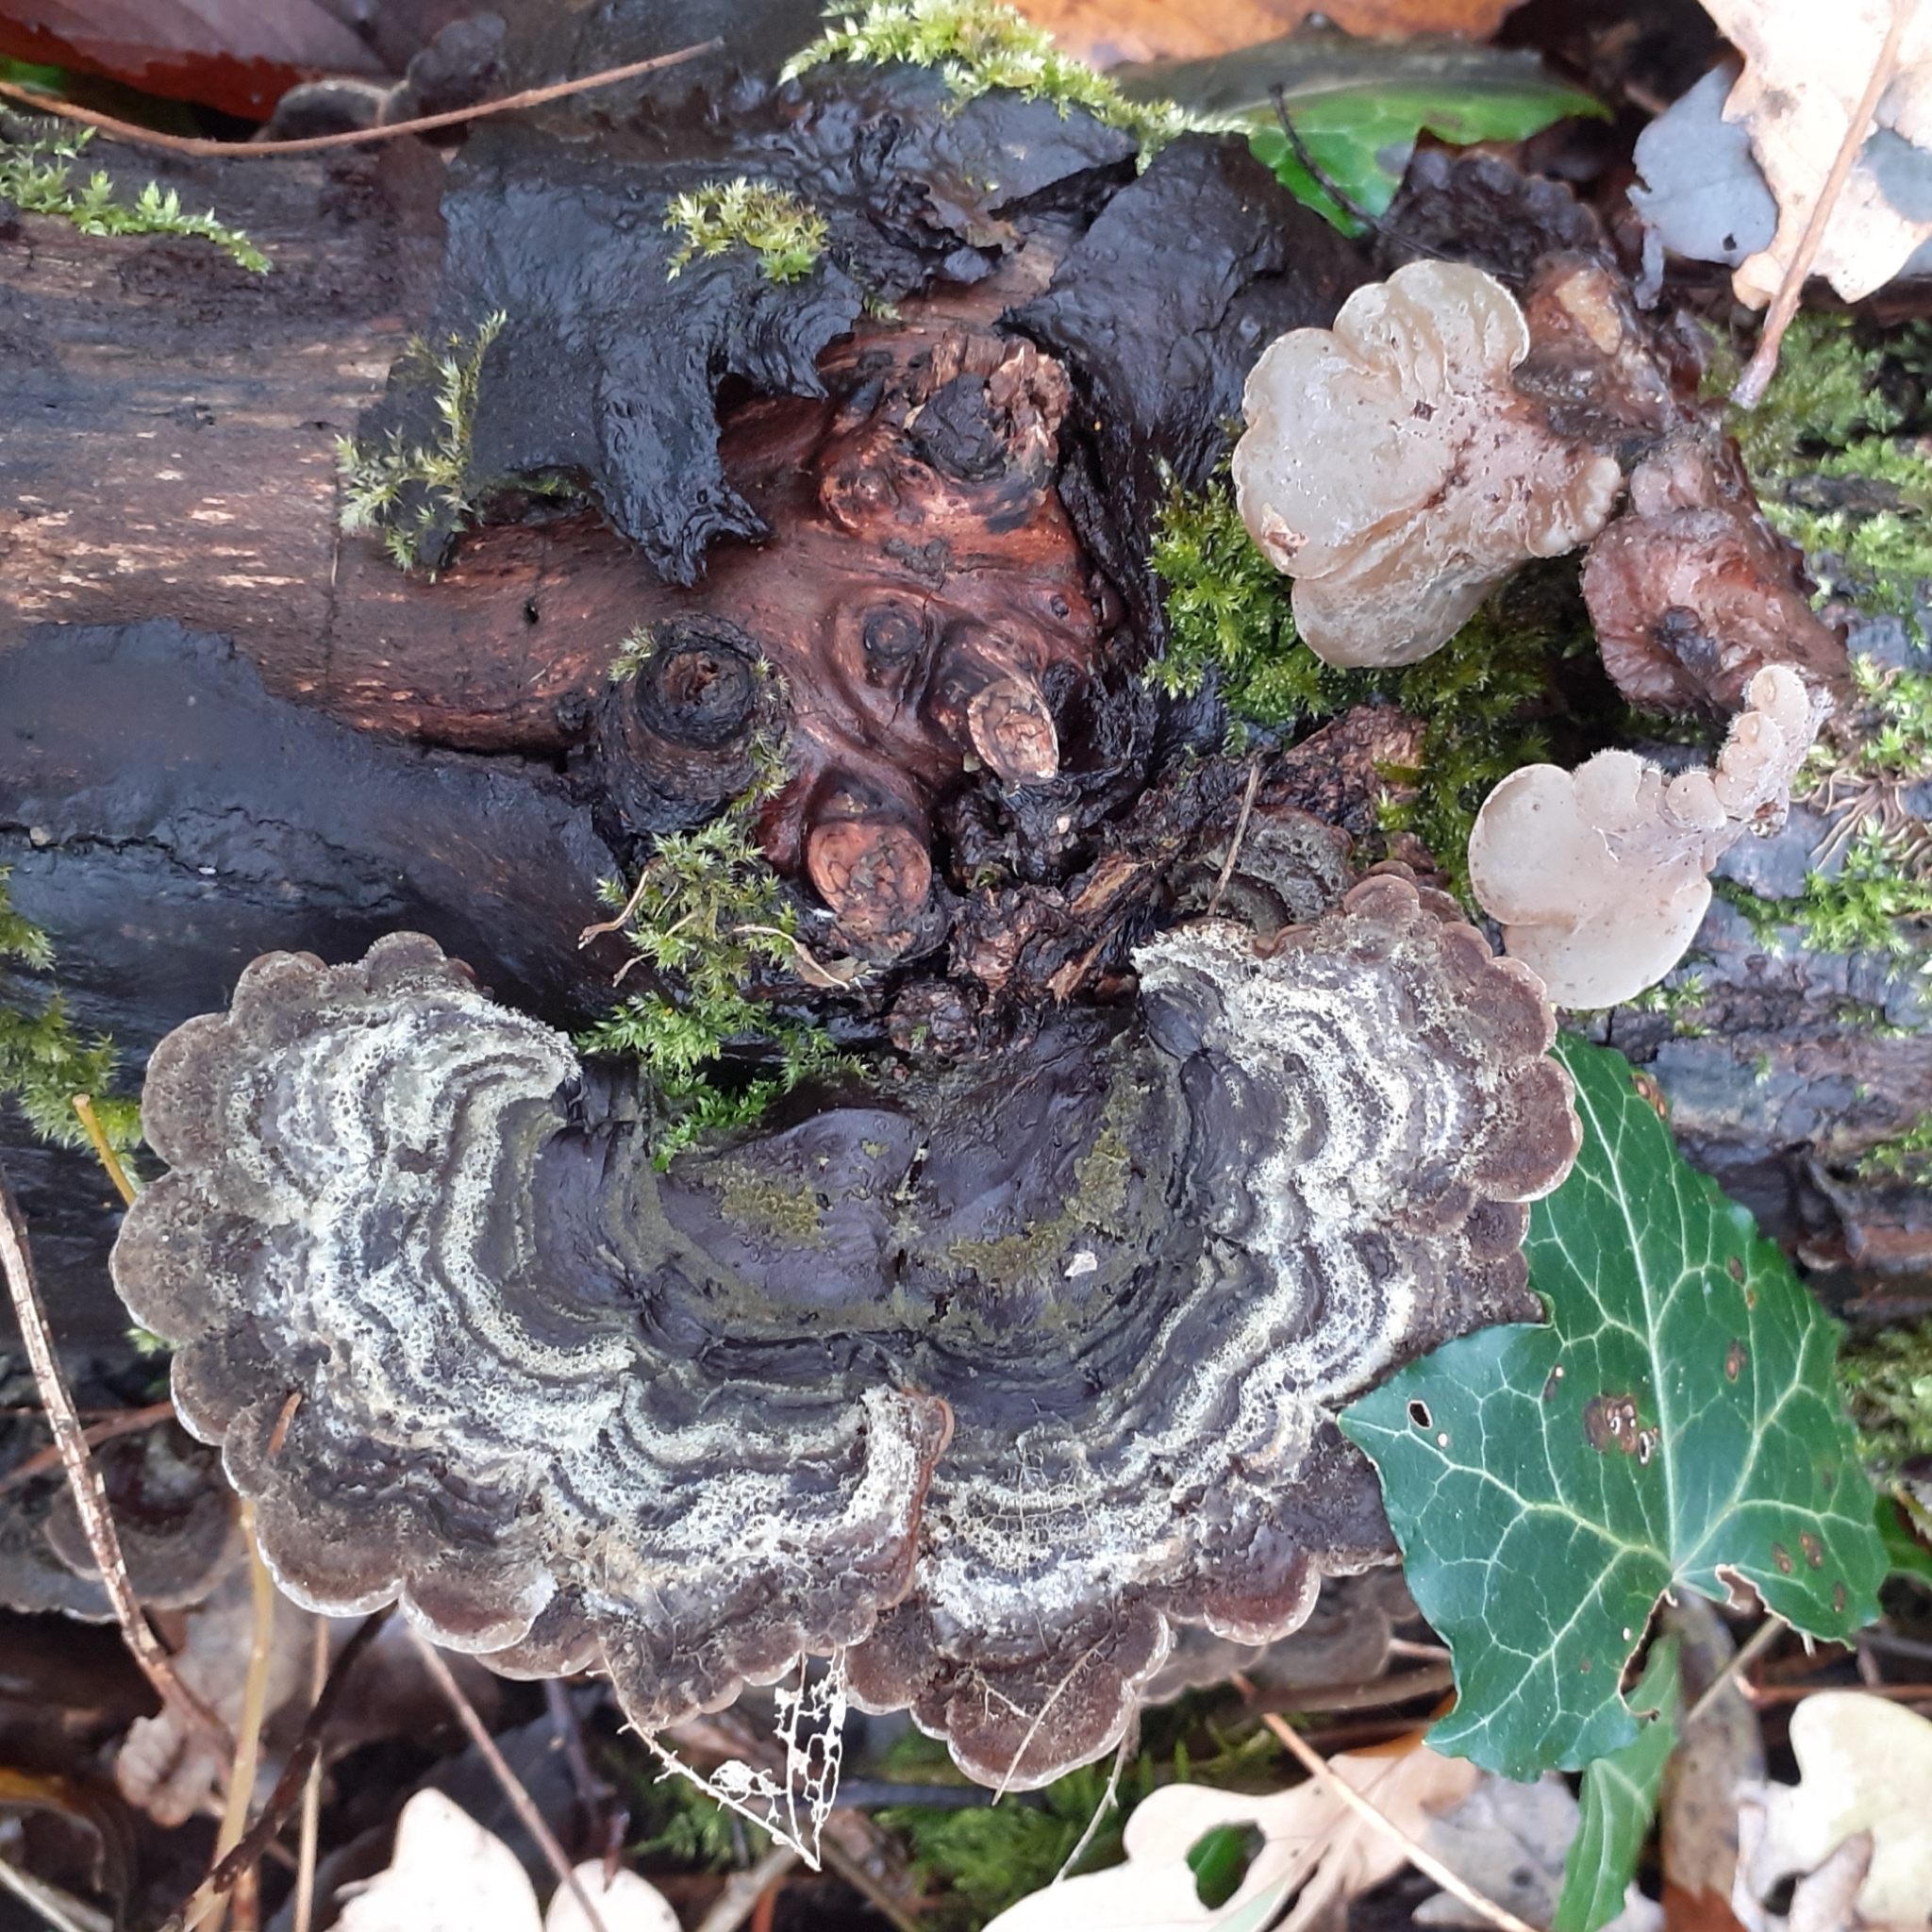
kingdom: Fungi
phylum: Basidiomycota
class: Agaricomycetes
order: Auriculariales
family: Auriculariaceae
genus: Auricularia
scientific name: Auricularia mesenterica
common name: Tripe fungus
